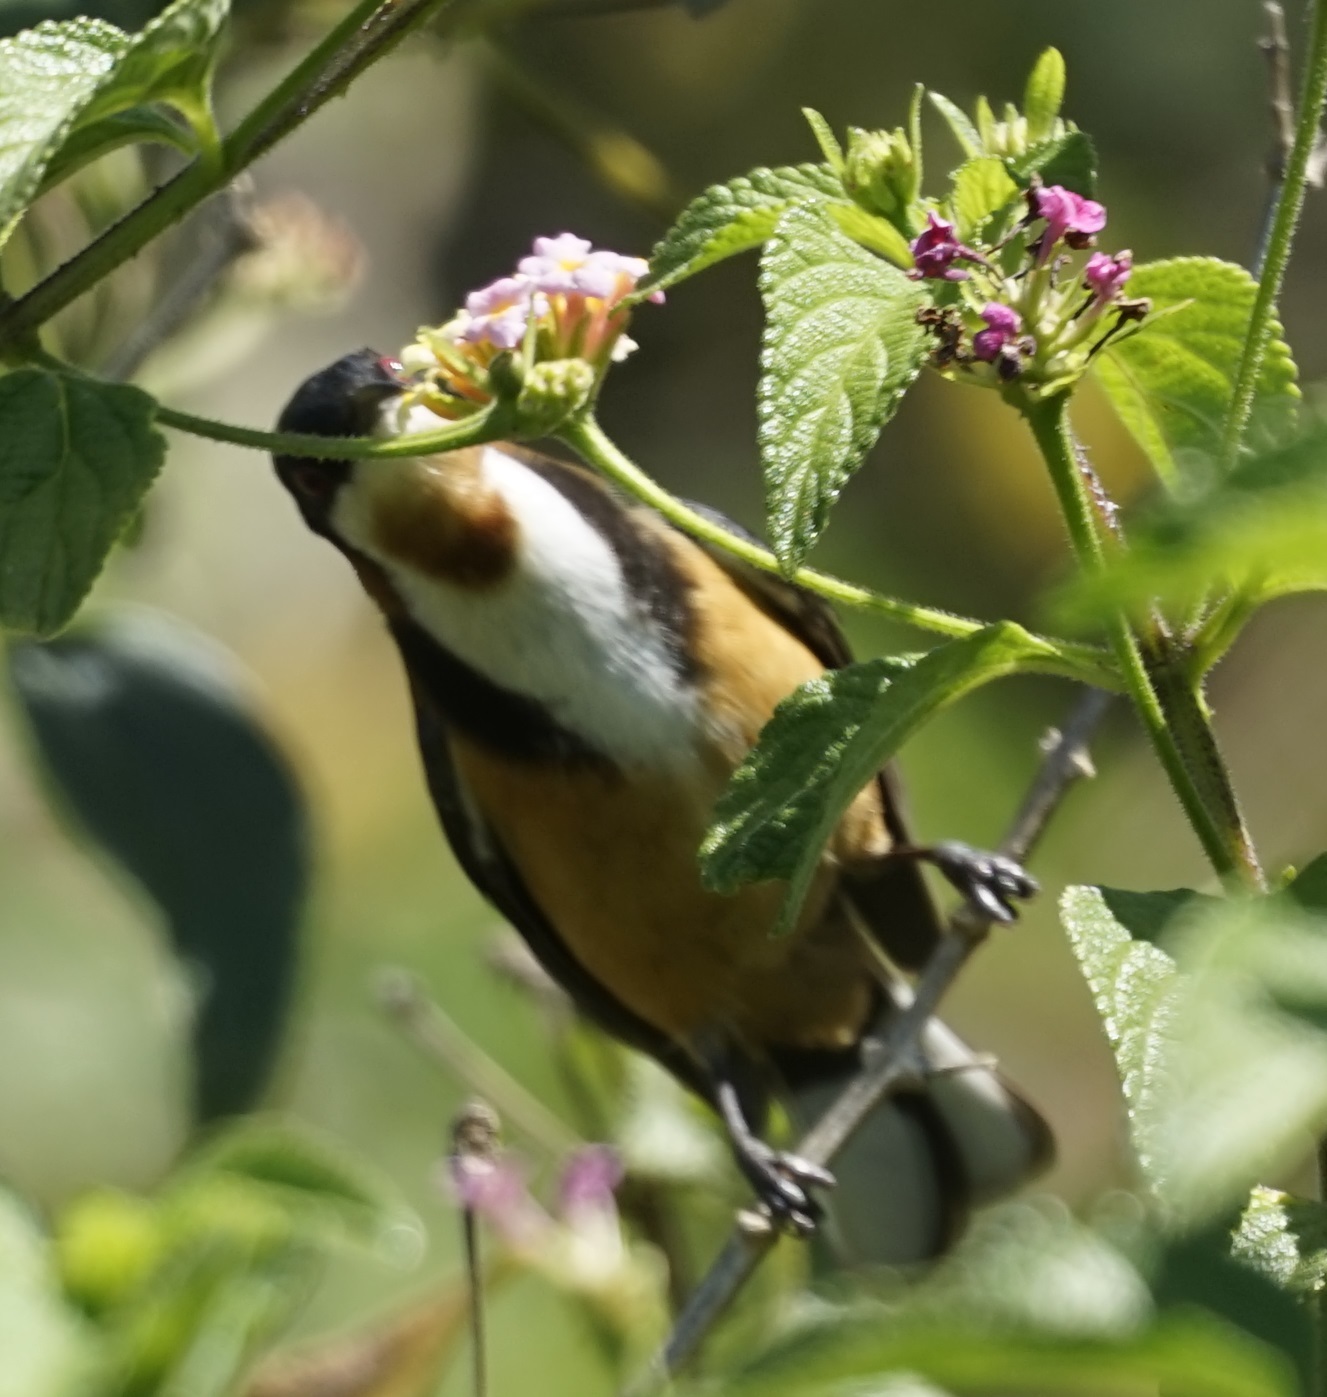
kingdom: Animalia
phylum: Chordata
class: Aves
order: Passeriformes
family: Meliphagidae
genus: Acanthorhynchus
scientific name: Acanthorhynchus tenuirostris
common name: Eastern spinebill
